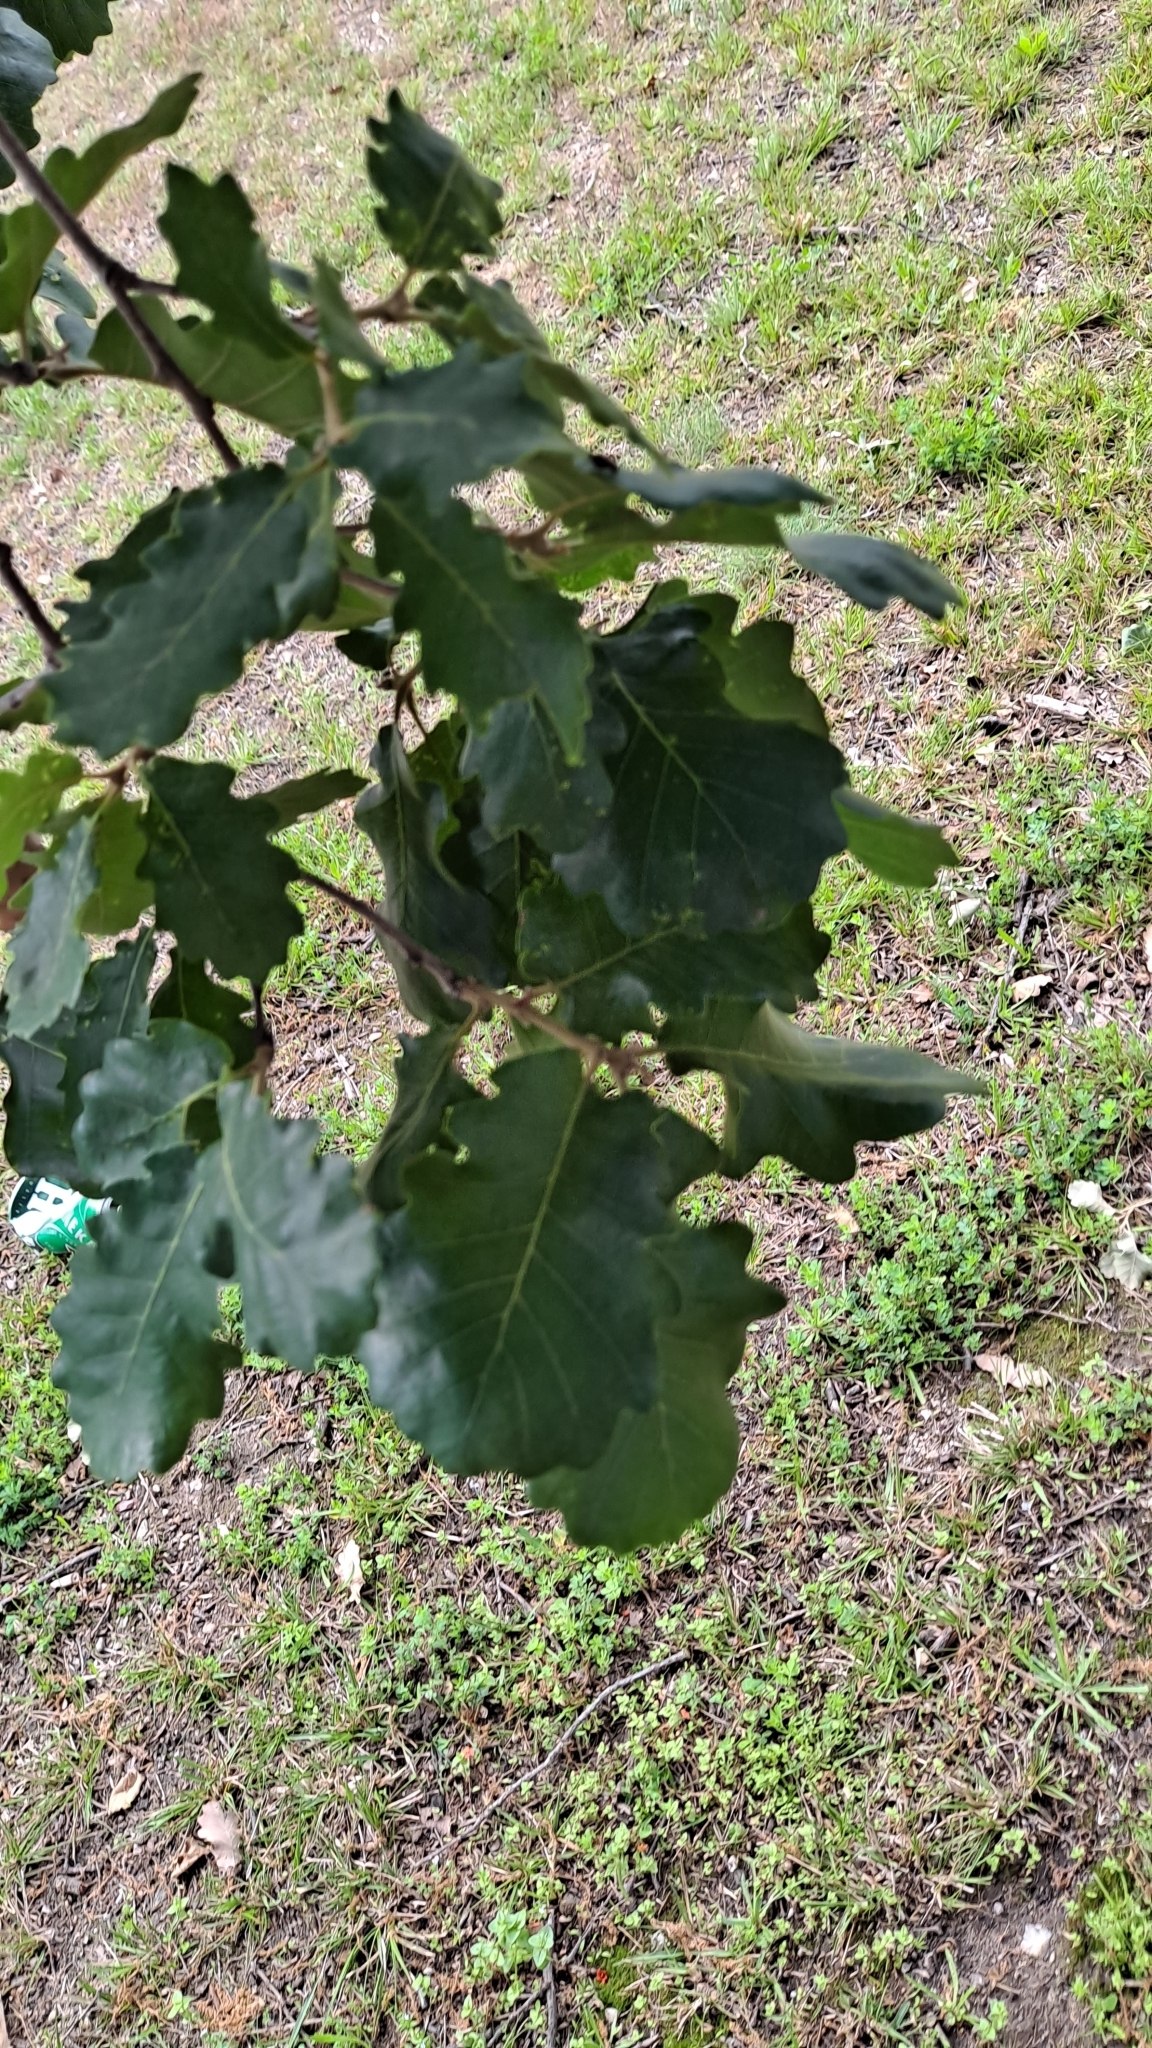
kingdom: Plantae
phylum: Tracheophyta
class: Magnoliopsida
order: Fagales
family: Fagaceae
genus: Quercus
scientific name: Quercus pubescens
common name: Downy oak
